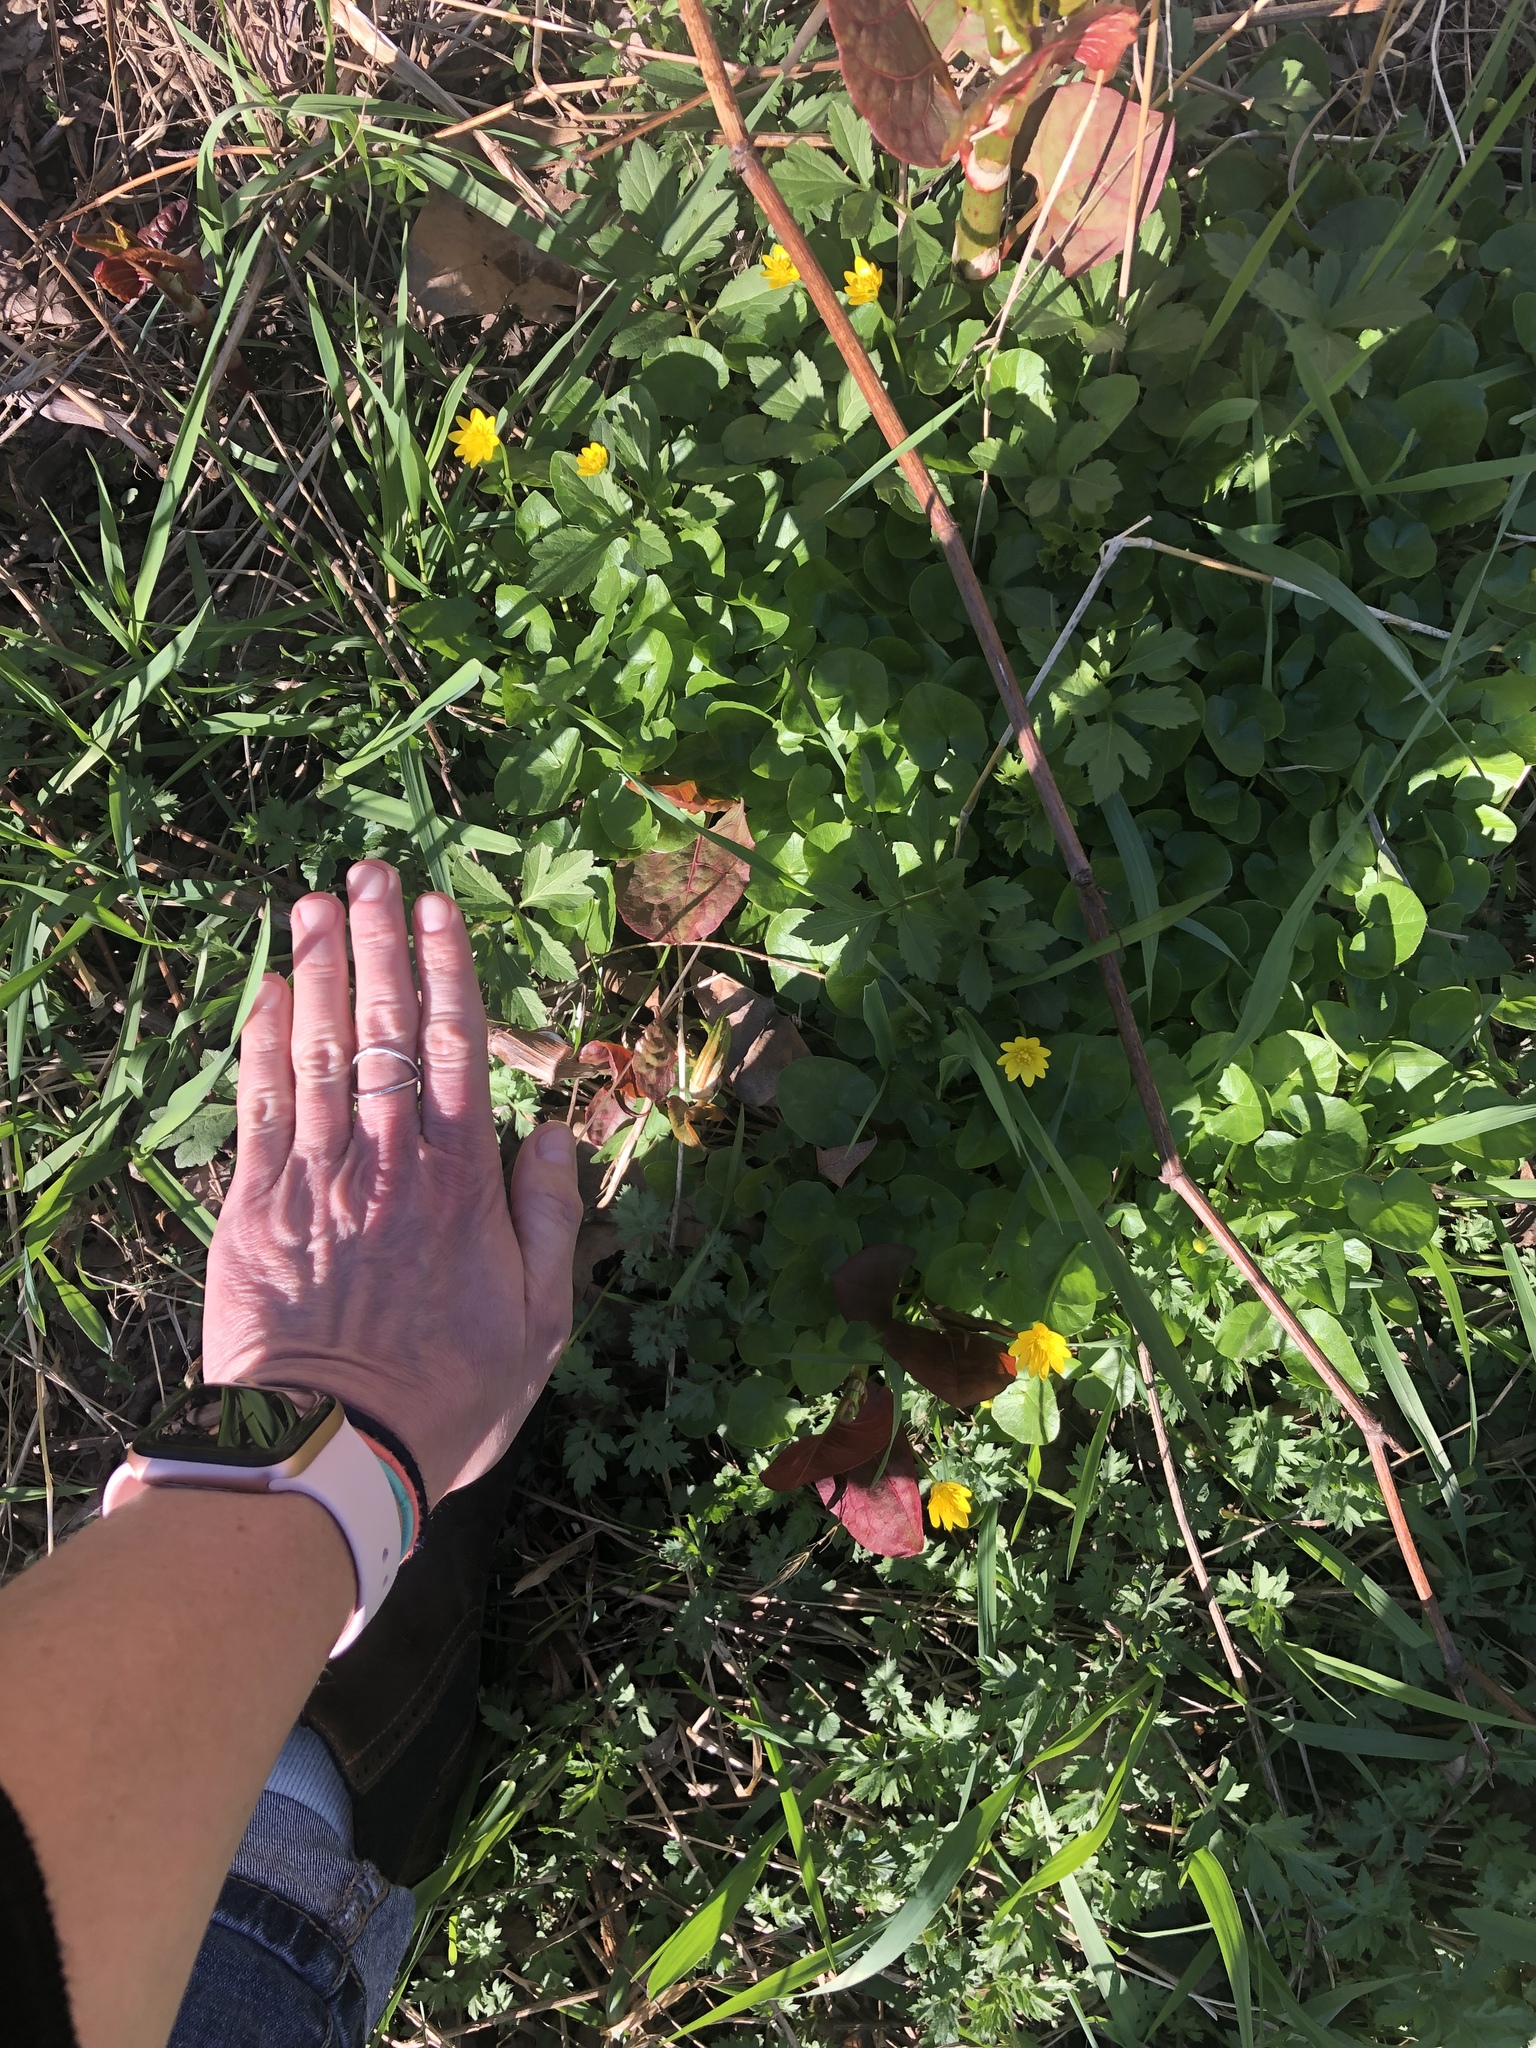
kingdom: Plantae
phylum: Tracheophyta
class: Magnoliopsida
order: Ranunculales
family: Ranunculaceae
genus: Ficaria
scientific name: Ficaria verna
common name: Lesser celandine
